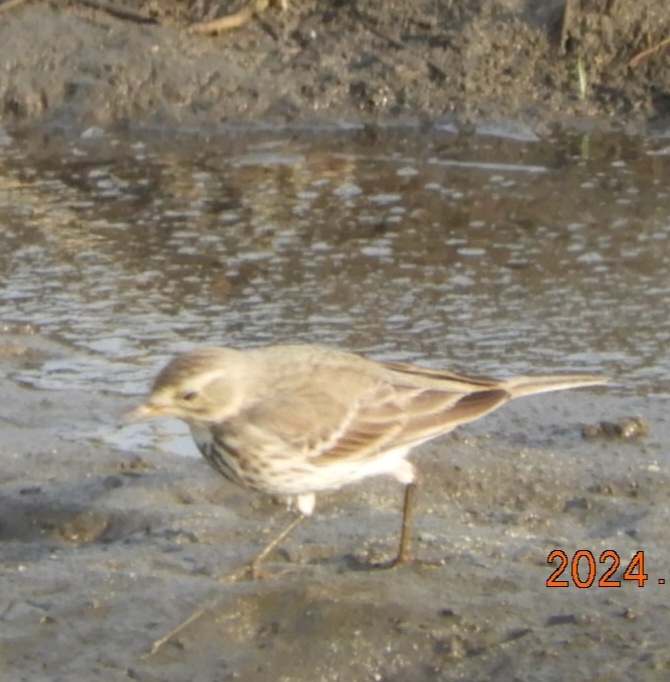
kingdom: Animalia
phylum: Chordata
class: Aves
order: Passeriformes
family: Motacillidae
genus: Anthus
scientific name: Anthus rubescens
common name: Buff-bellied pipit
